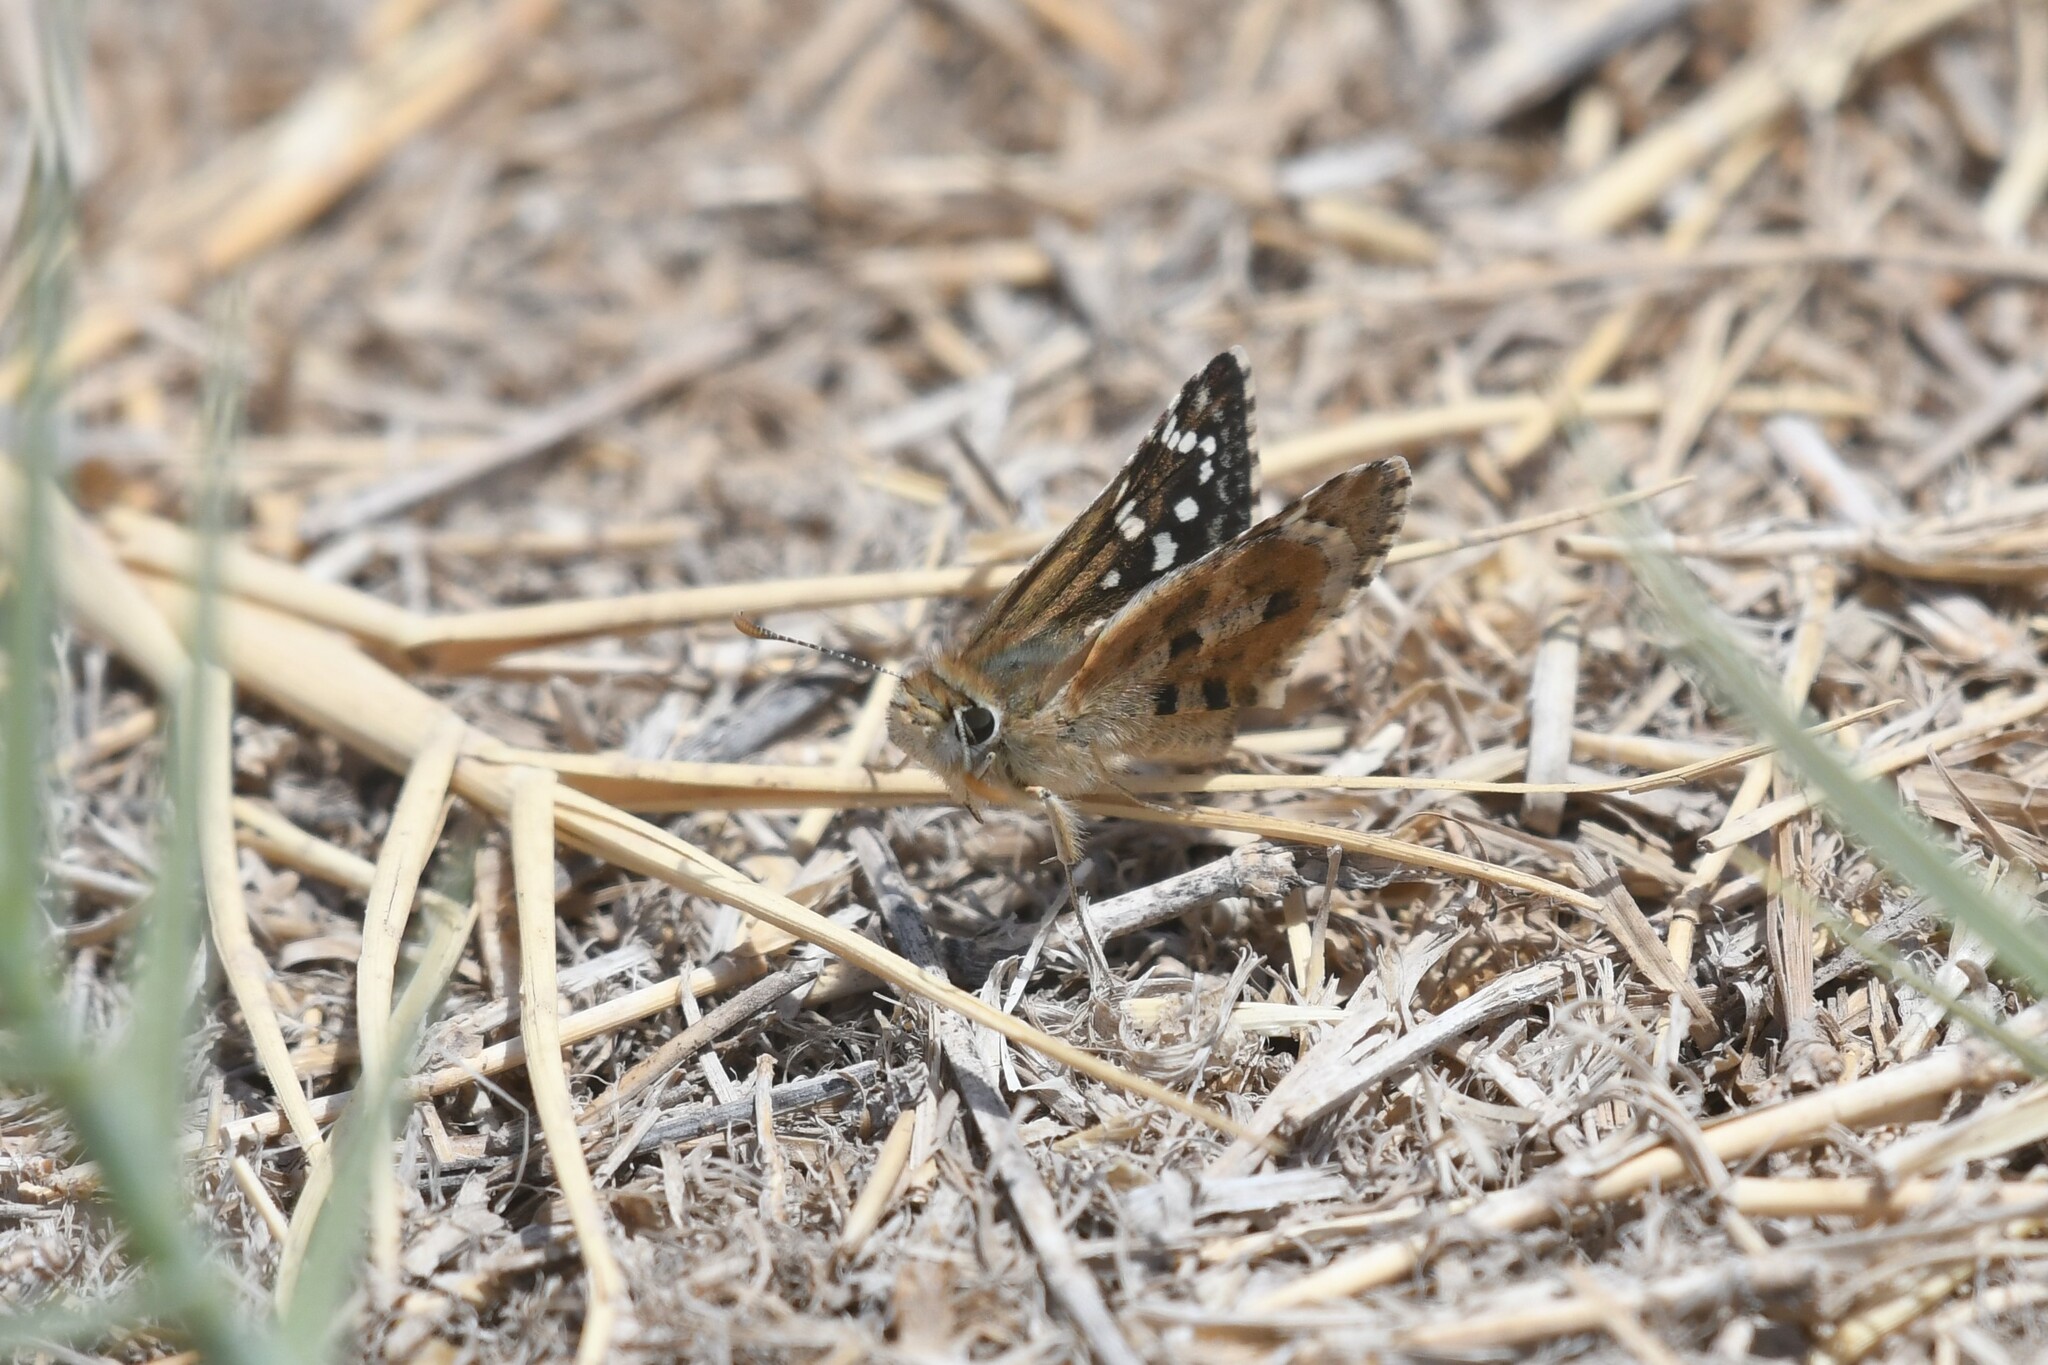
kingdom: Animalia
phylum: Arthropoda
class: Insecta
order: Lepidoptera
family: Hesperiidae
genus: Chirgus
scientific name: Chirgus fides
